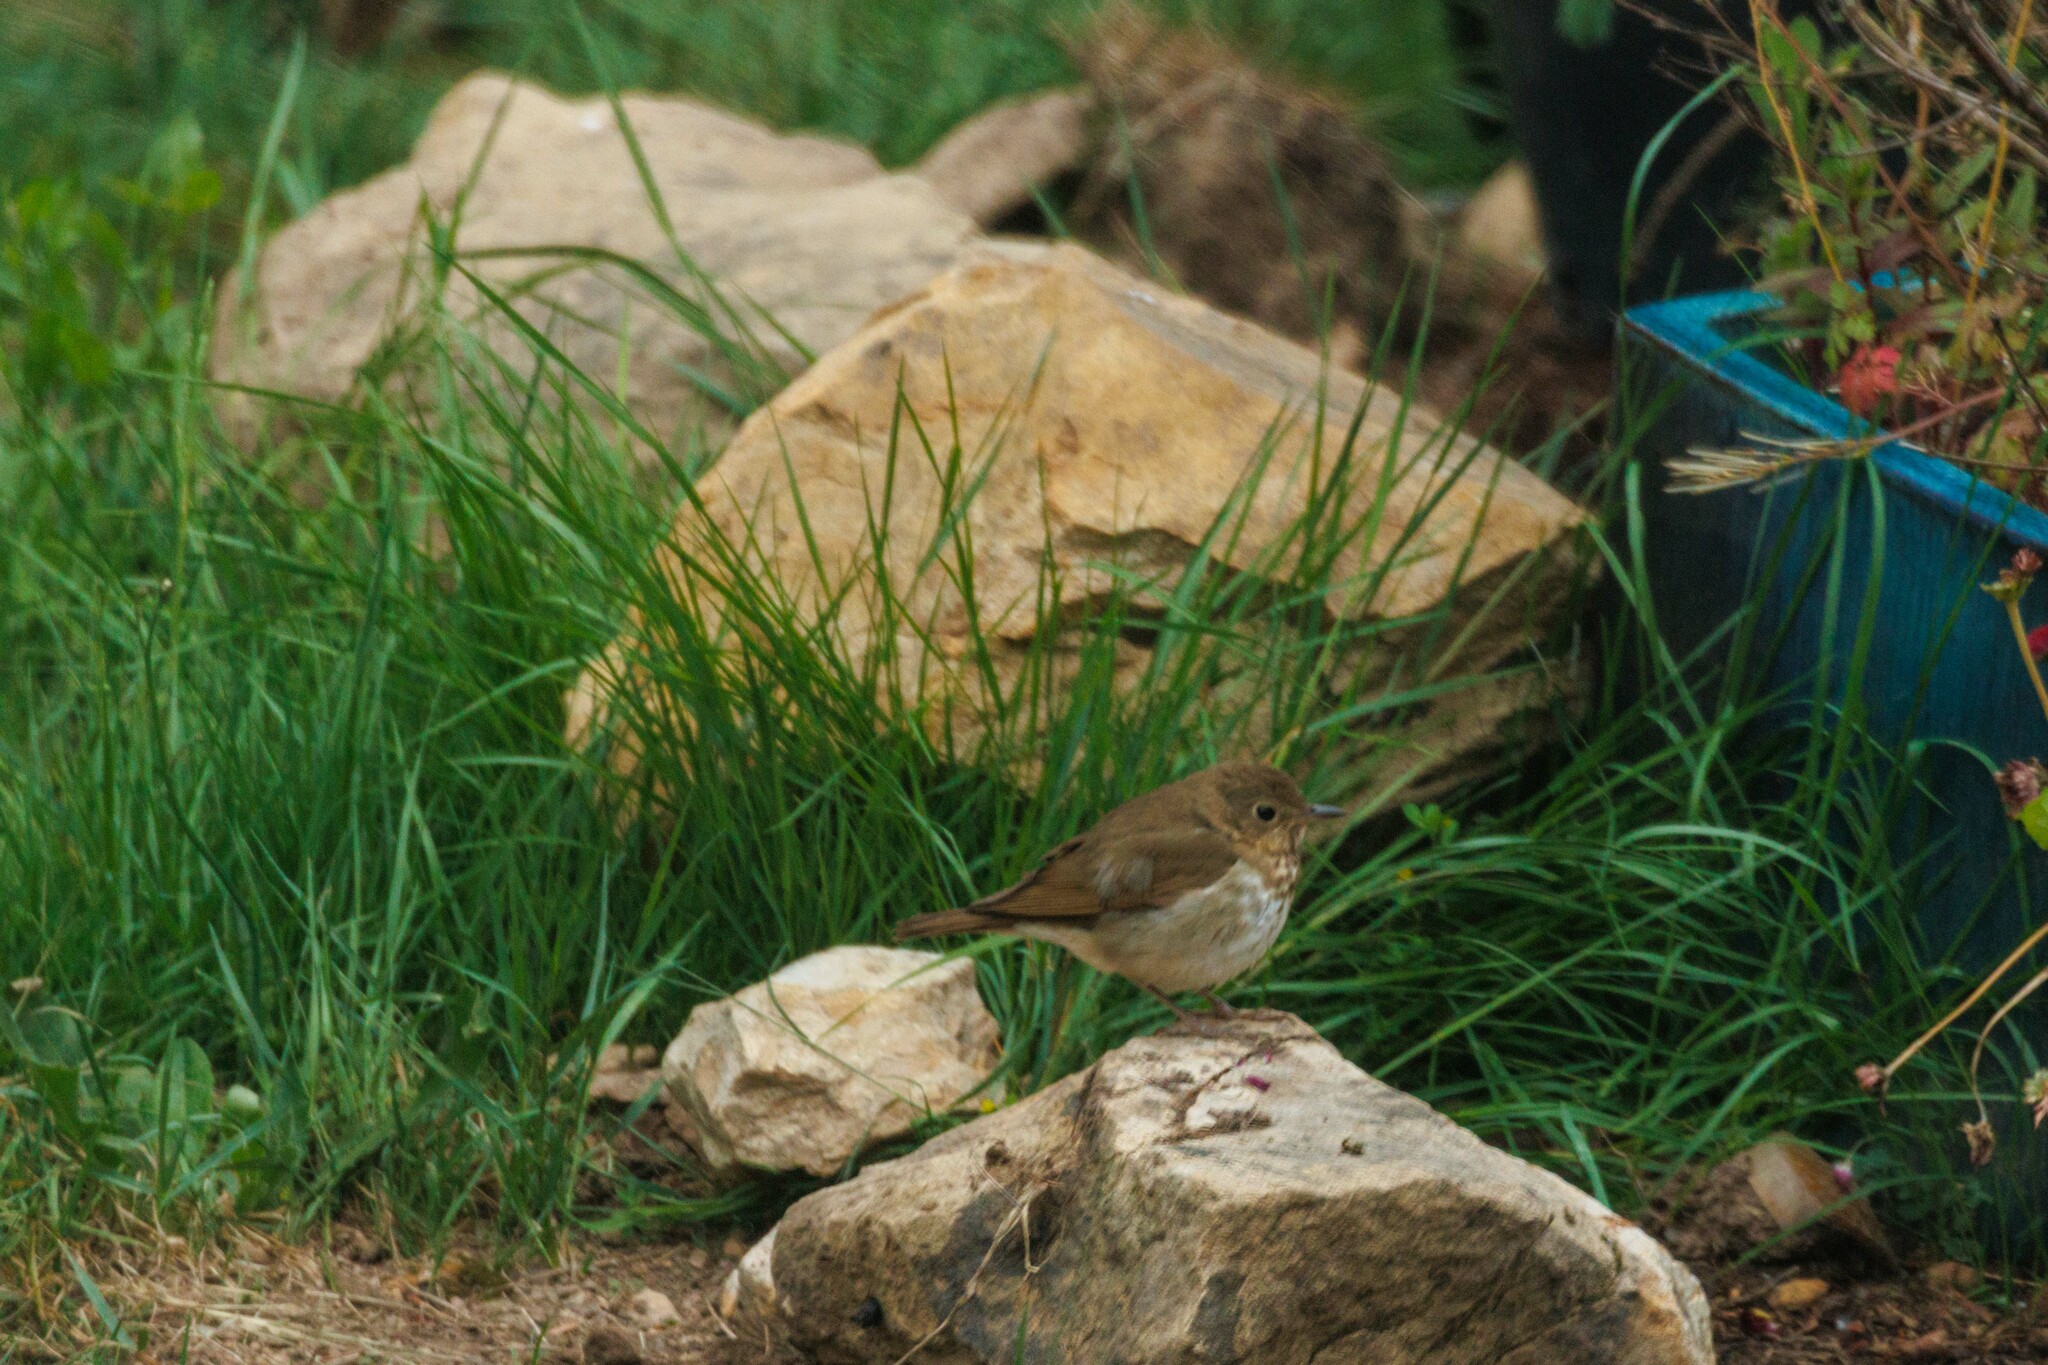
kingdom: Animalia
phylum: Chordata
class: Aves
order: Passeriformes
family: Turdidae
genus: Catharus
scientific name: Catharus ustulatus
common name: Swainson's thrush
